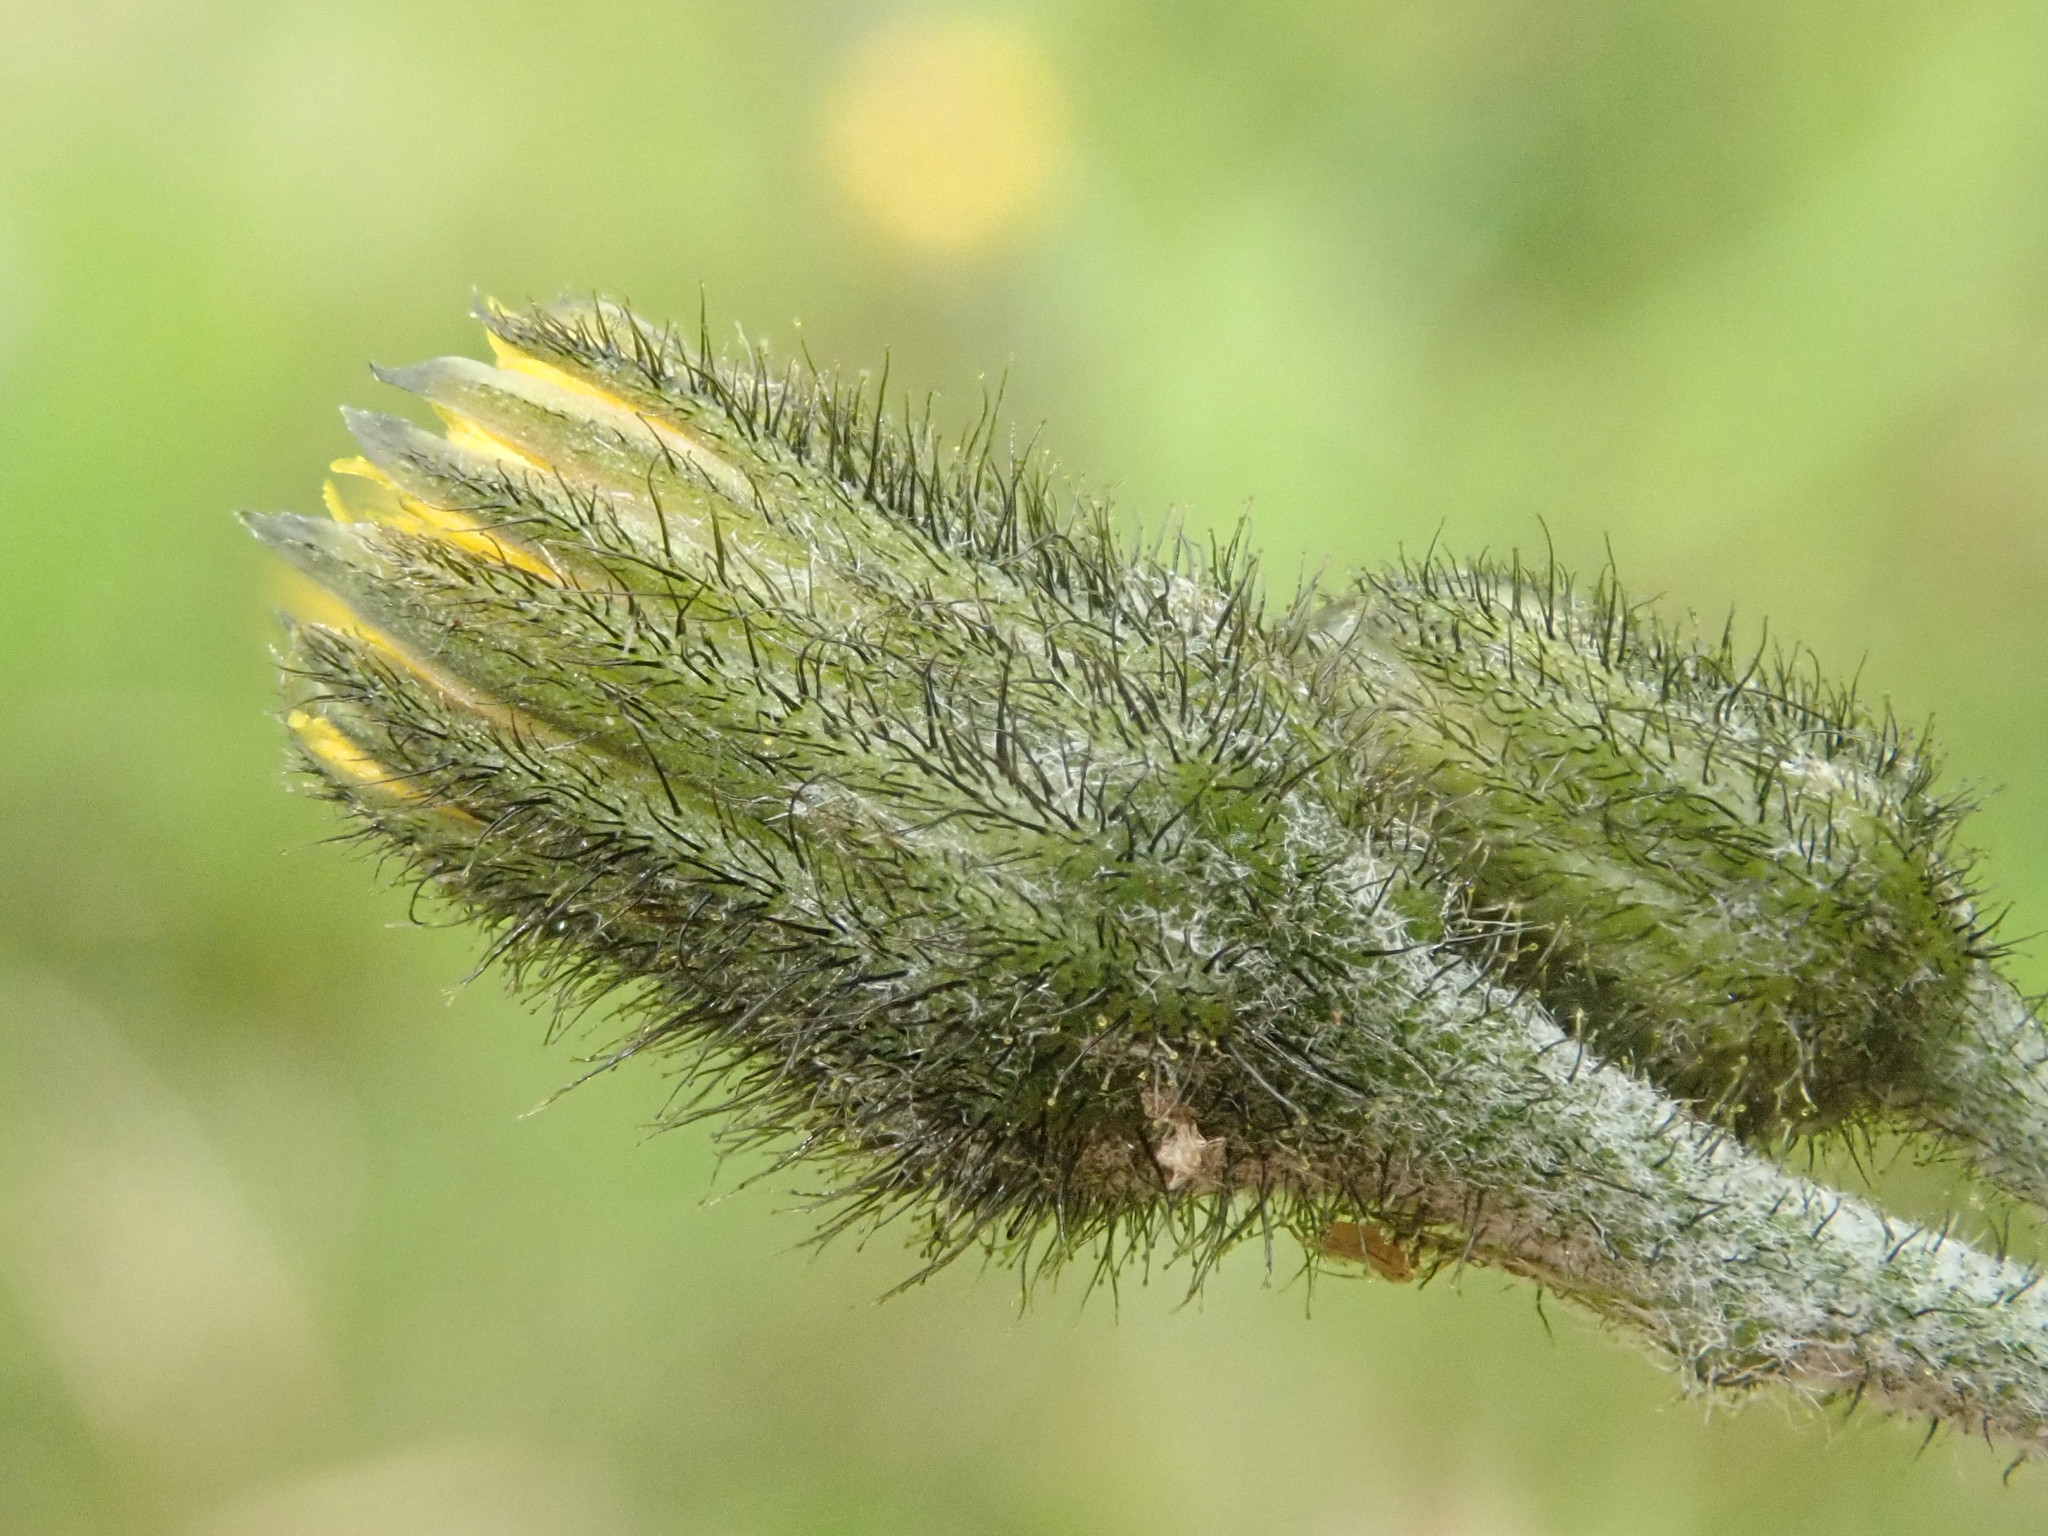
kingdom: Plantae
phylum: Tracheophyta
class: Magnoliopsida
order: Asterales
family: Asteraceae
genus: Hieracium
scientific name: Hieracium triste
